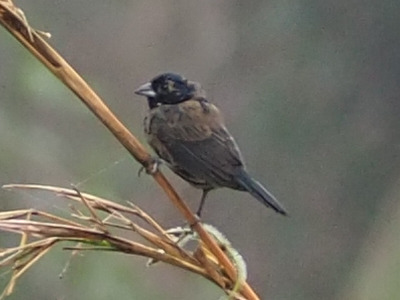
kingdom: Animalia
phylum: Chordata
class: Aves
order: Passeriformes
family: Thraupidae
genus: Volatinia
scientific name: Volatinia jacarina
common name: Blue-black grassquit
